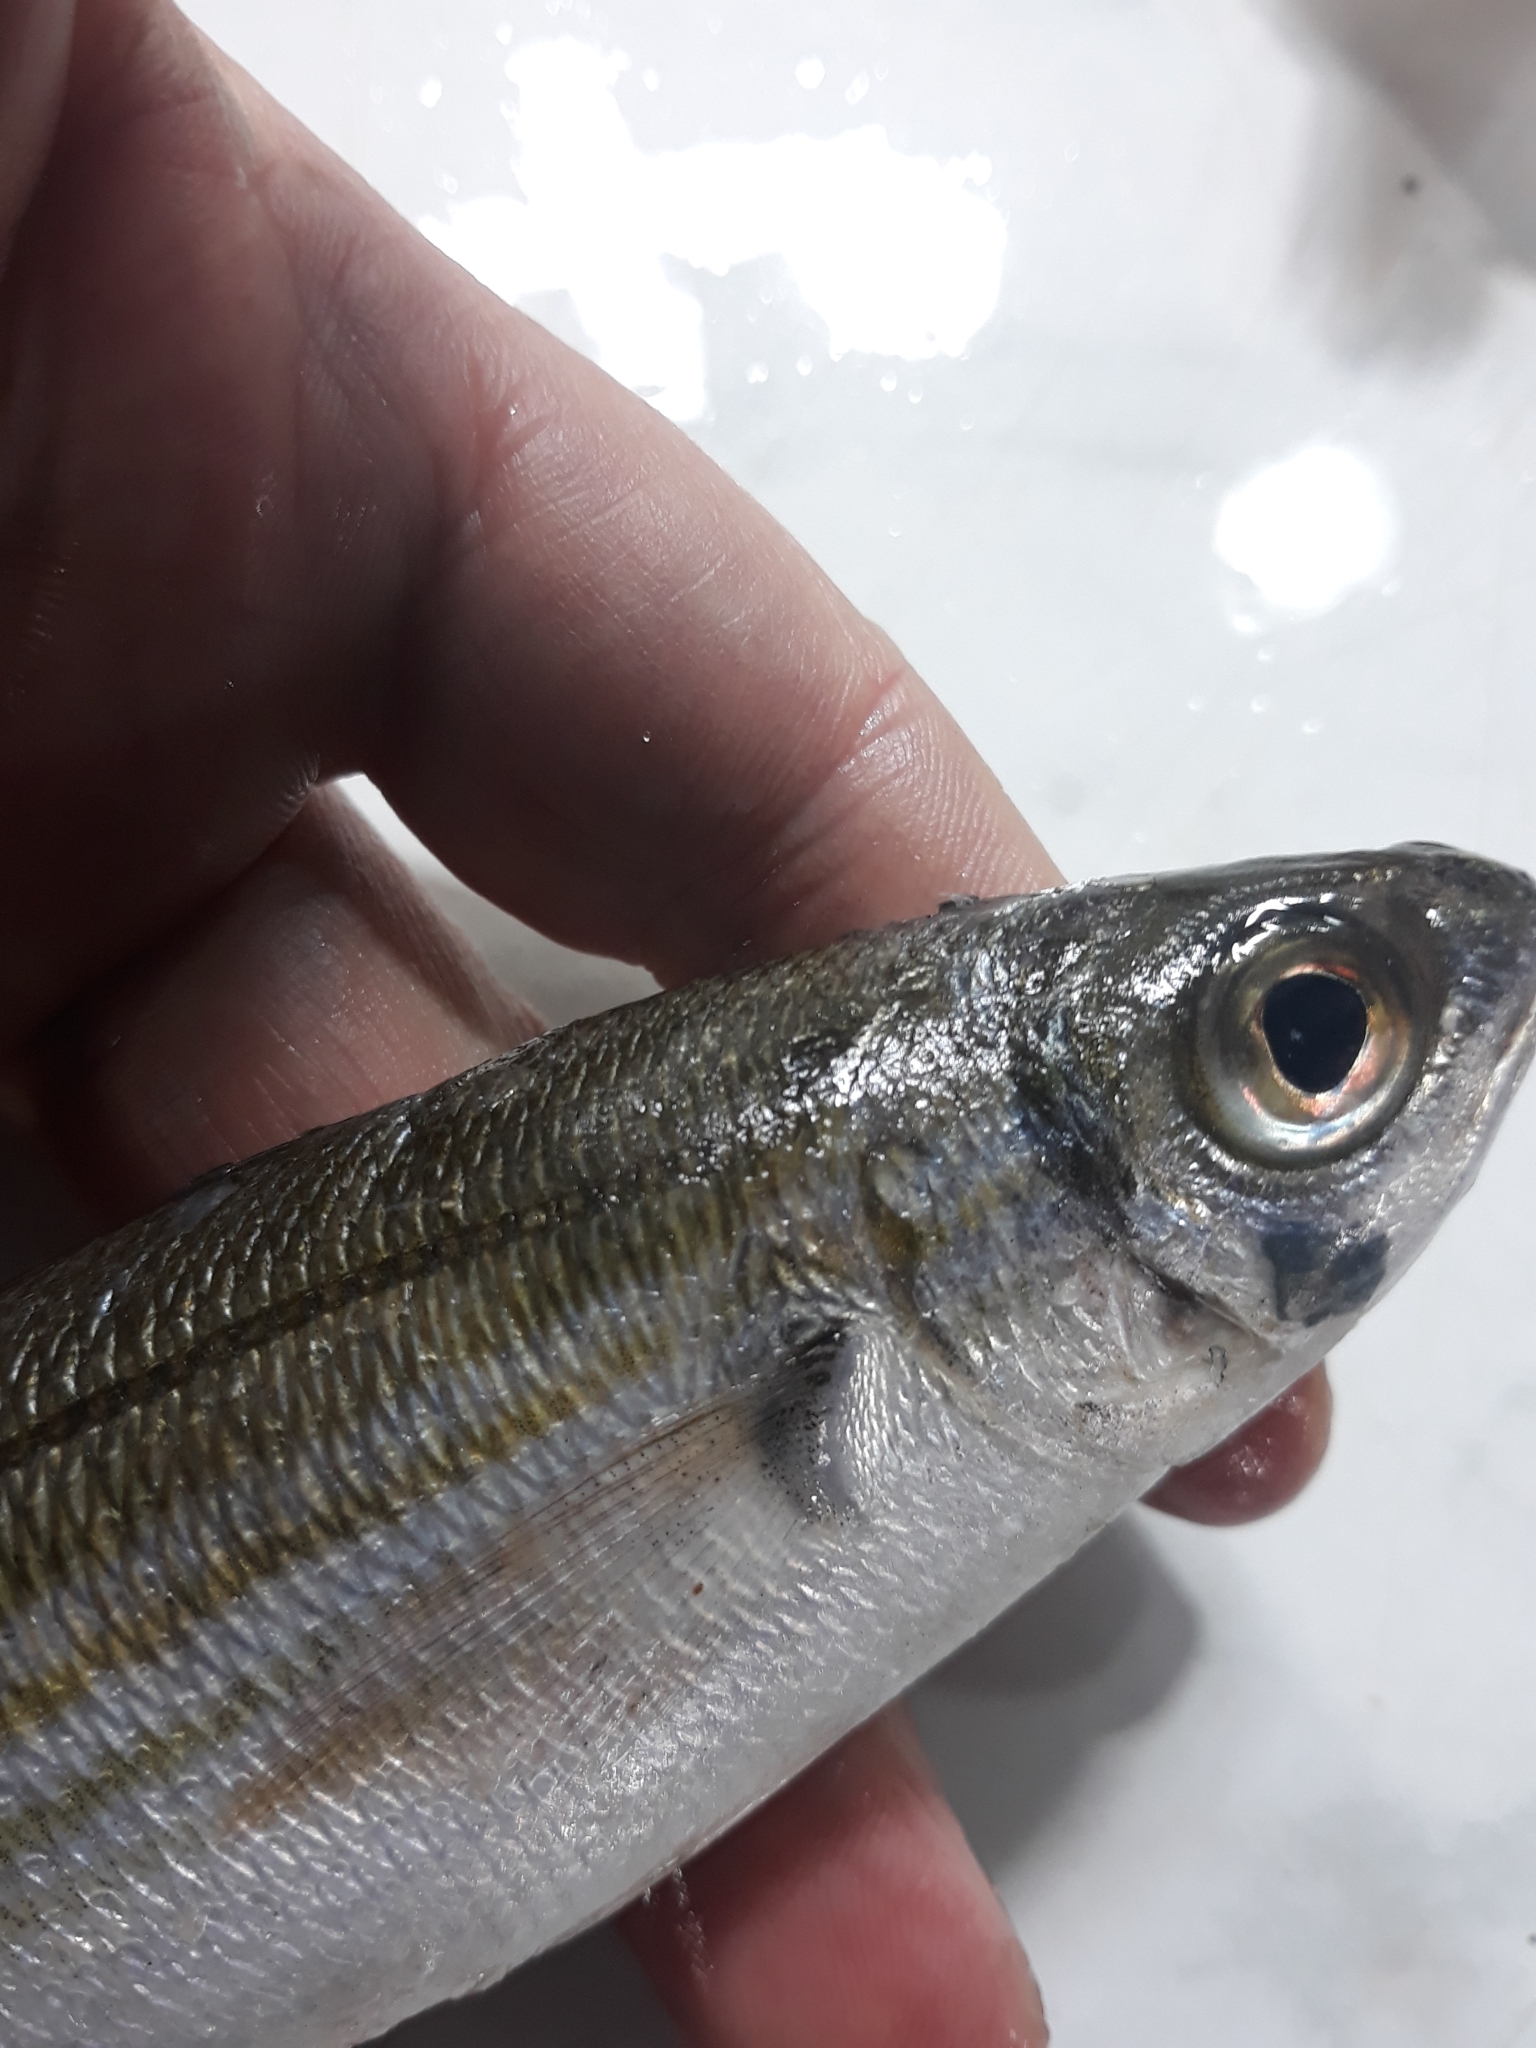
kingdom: Animalia
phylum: Chordata
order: Perciformes
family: Sparidae
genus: Boops
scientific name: Boops boops
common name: Bogue
